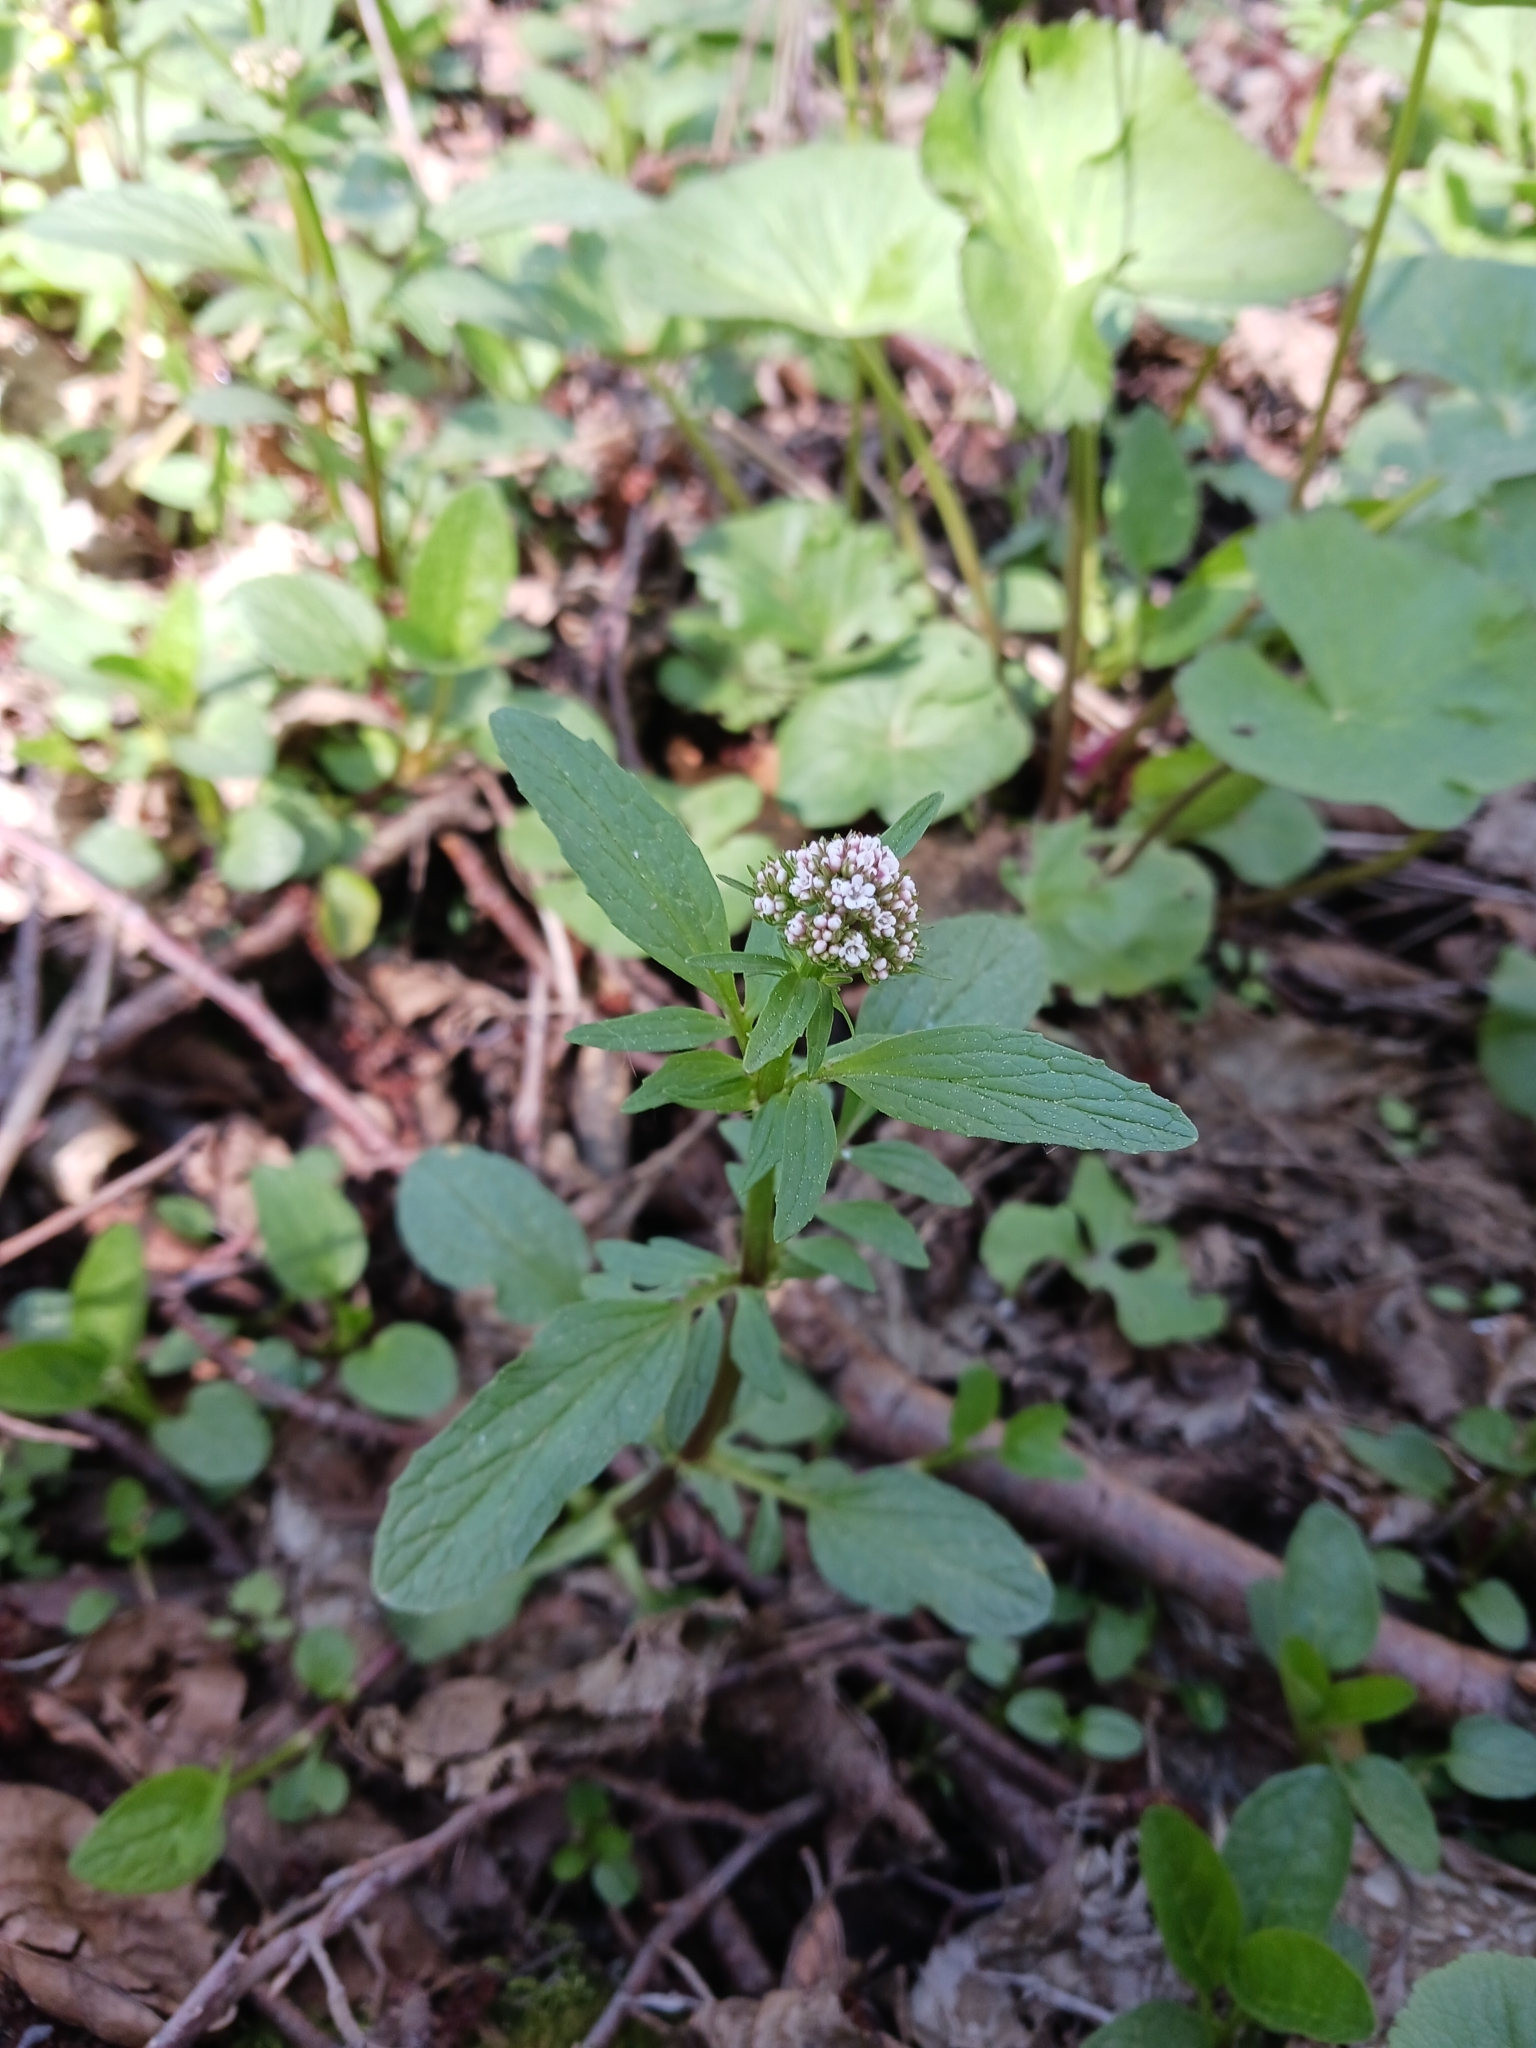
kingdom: Plantae
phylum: Tracheophyta
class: Magnoliopsida
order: Dipsacales
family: Caprifoliaceae
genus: Valeriana
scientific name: Valeriana dioica
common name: Marsh valerian
